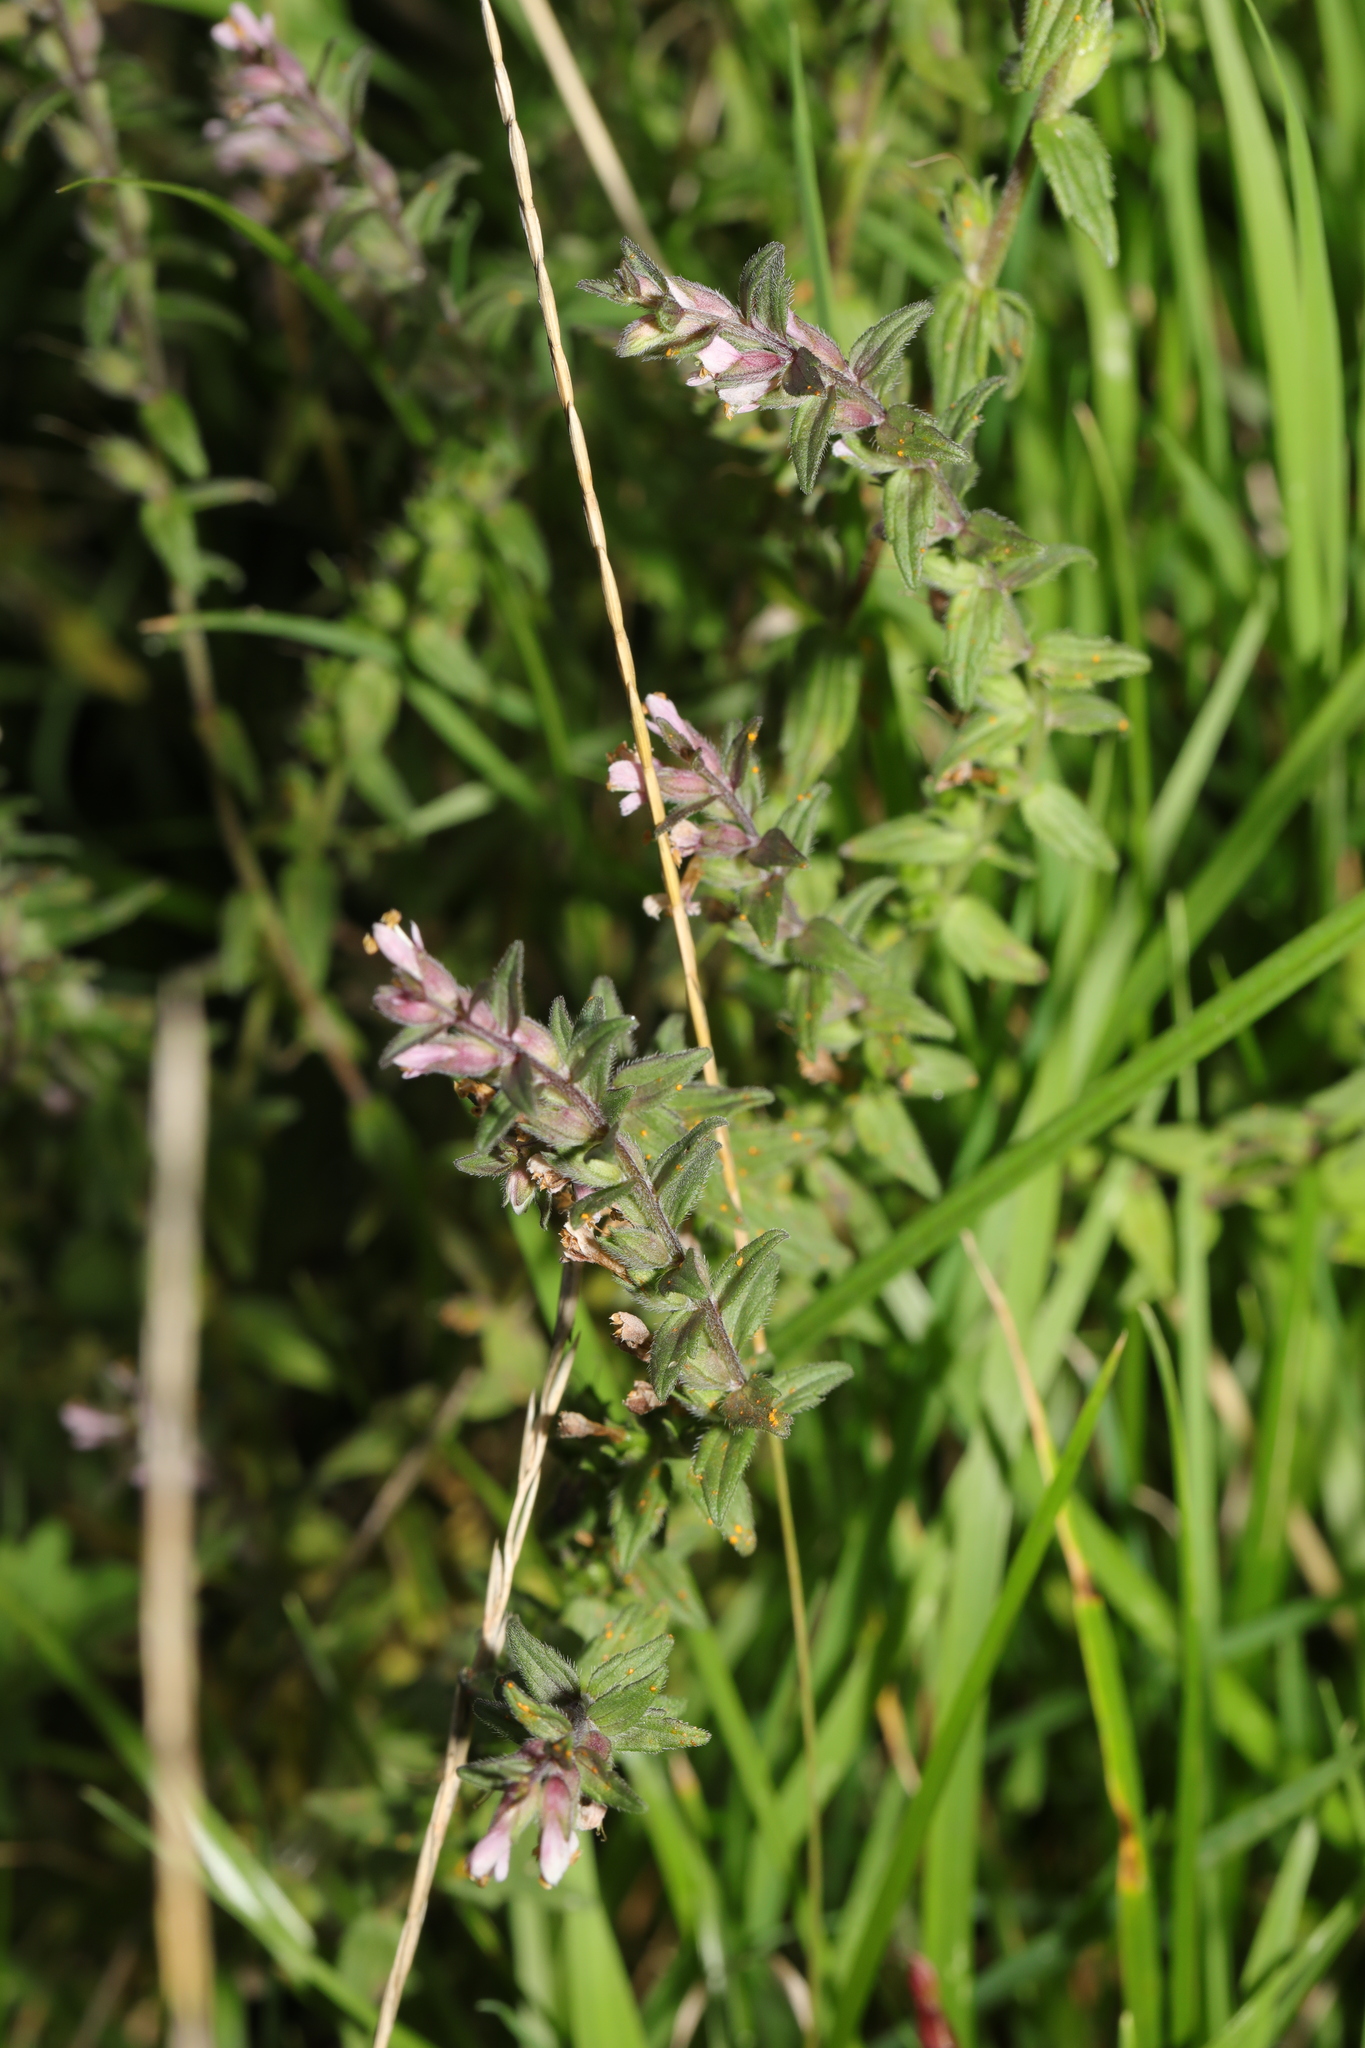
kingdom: Plantae
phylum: Tracheophyta
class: Magnoliopsida
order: Lamiales
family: Orobanchaceae
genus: Odontites
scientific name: Odontites vernus
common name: Red bartsia
